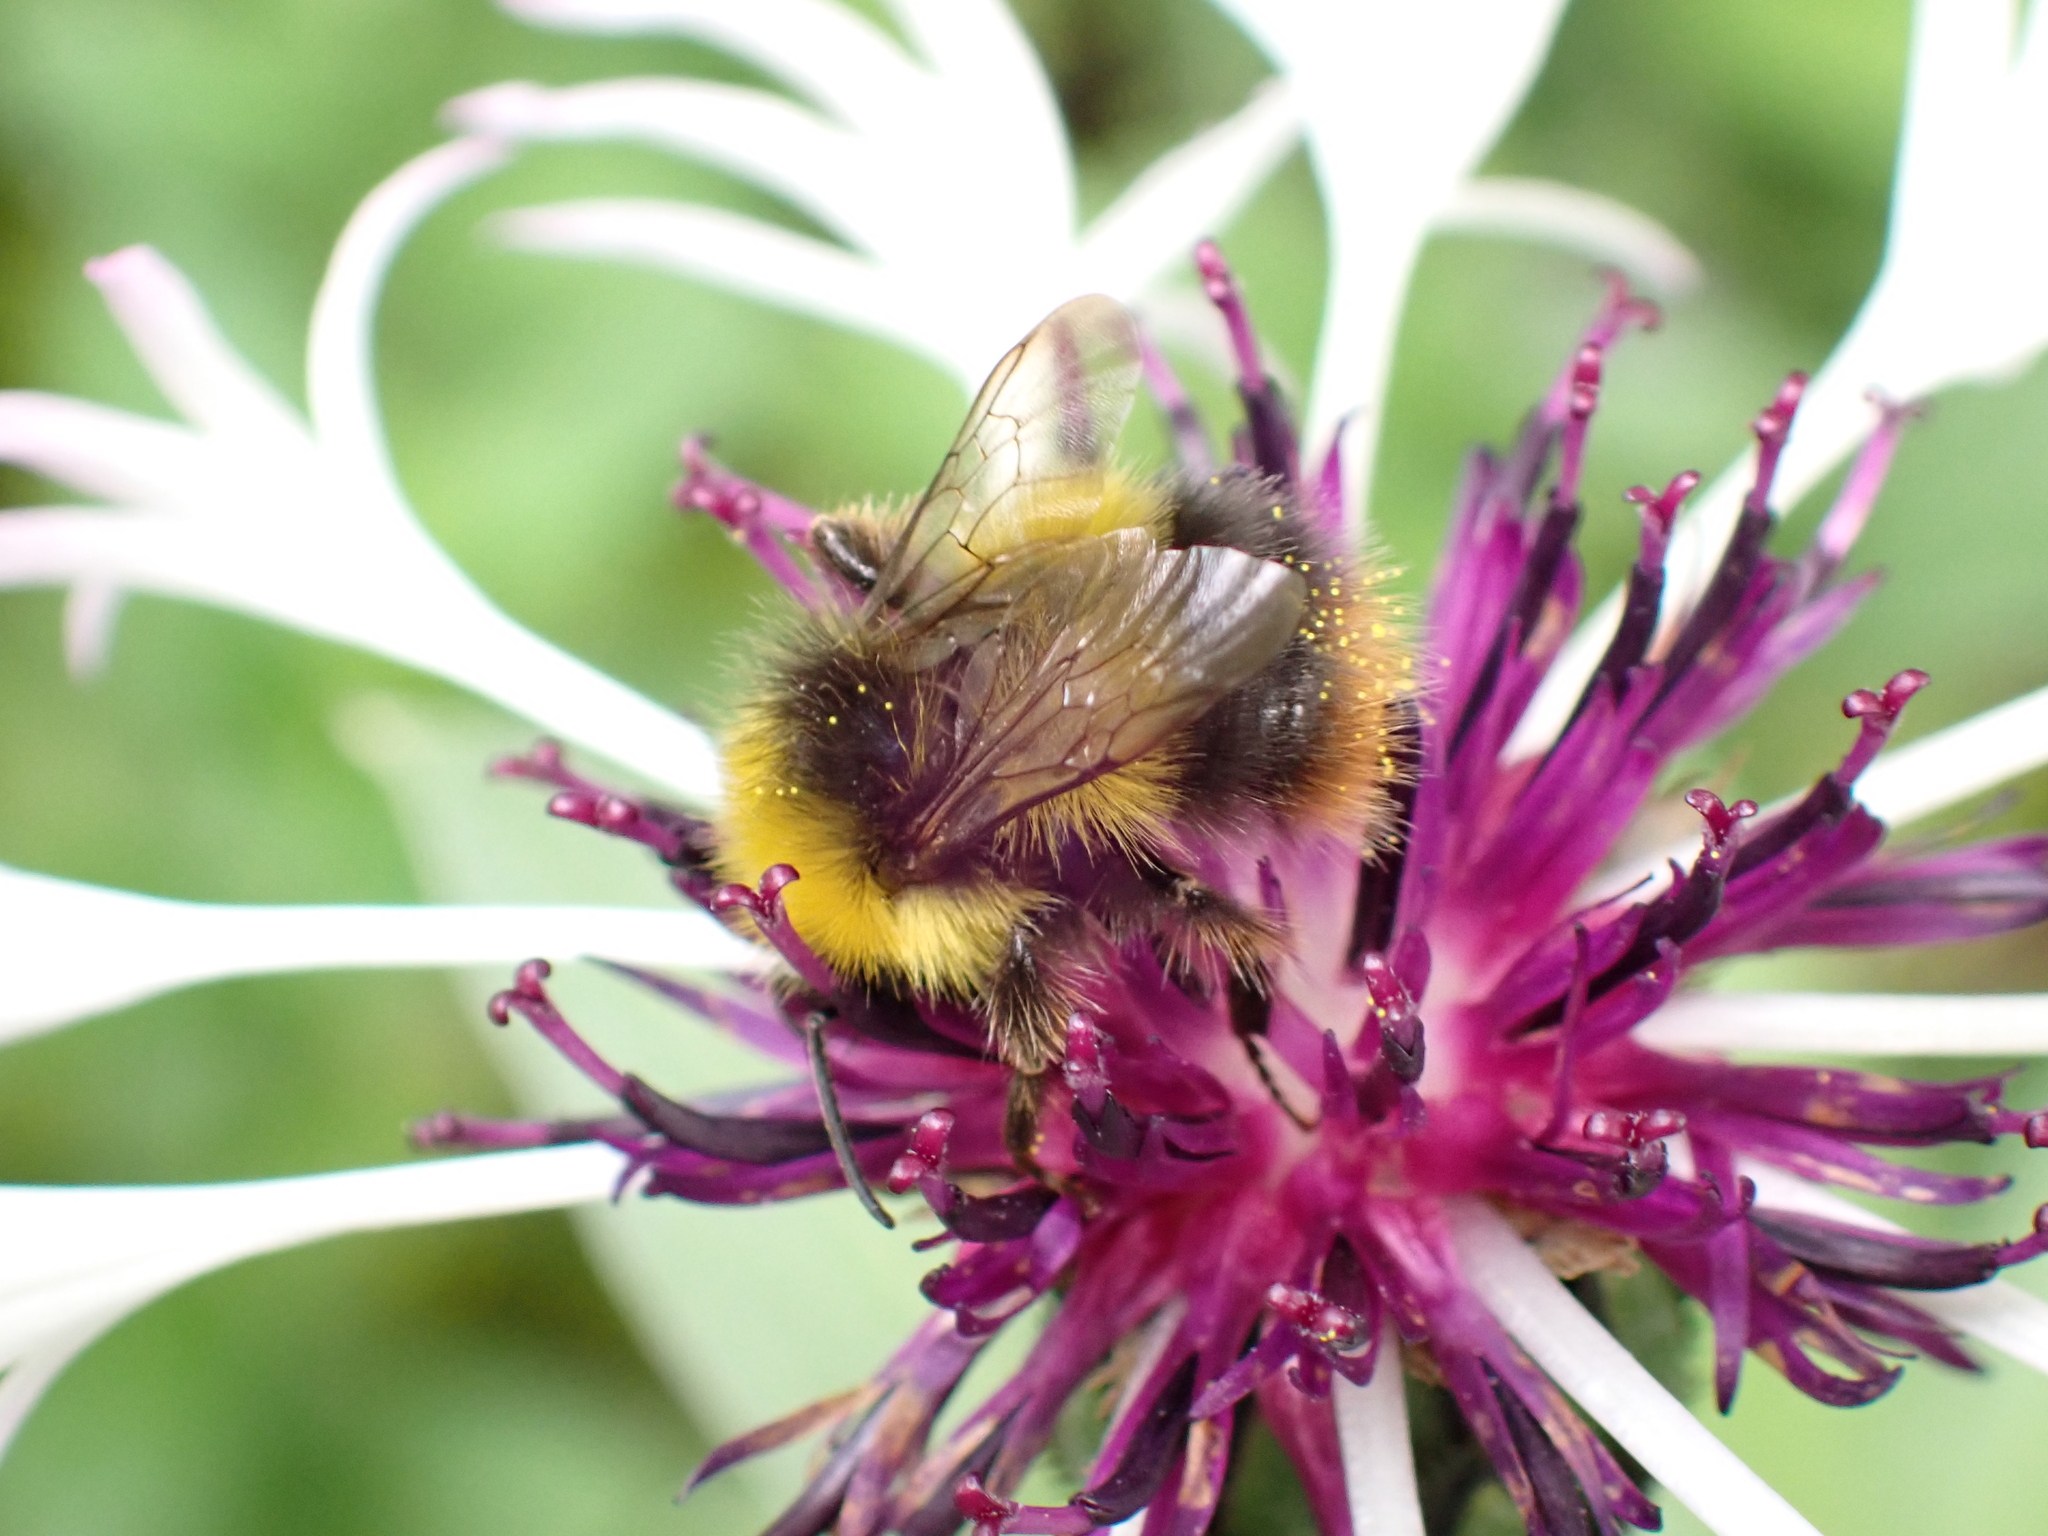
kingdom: Animalia
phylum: Arthropoda
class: Insecta
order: Hymenoptera
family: Apidae
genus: Bombus
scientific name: Bombus pratorum
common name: Early humble-bee
